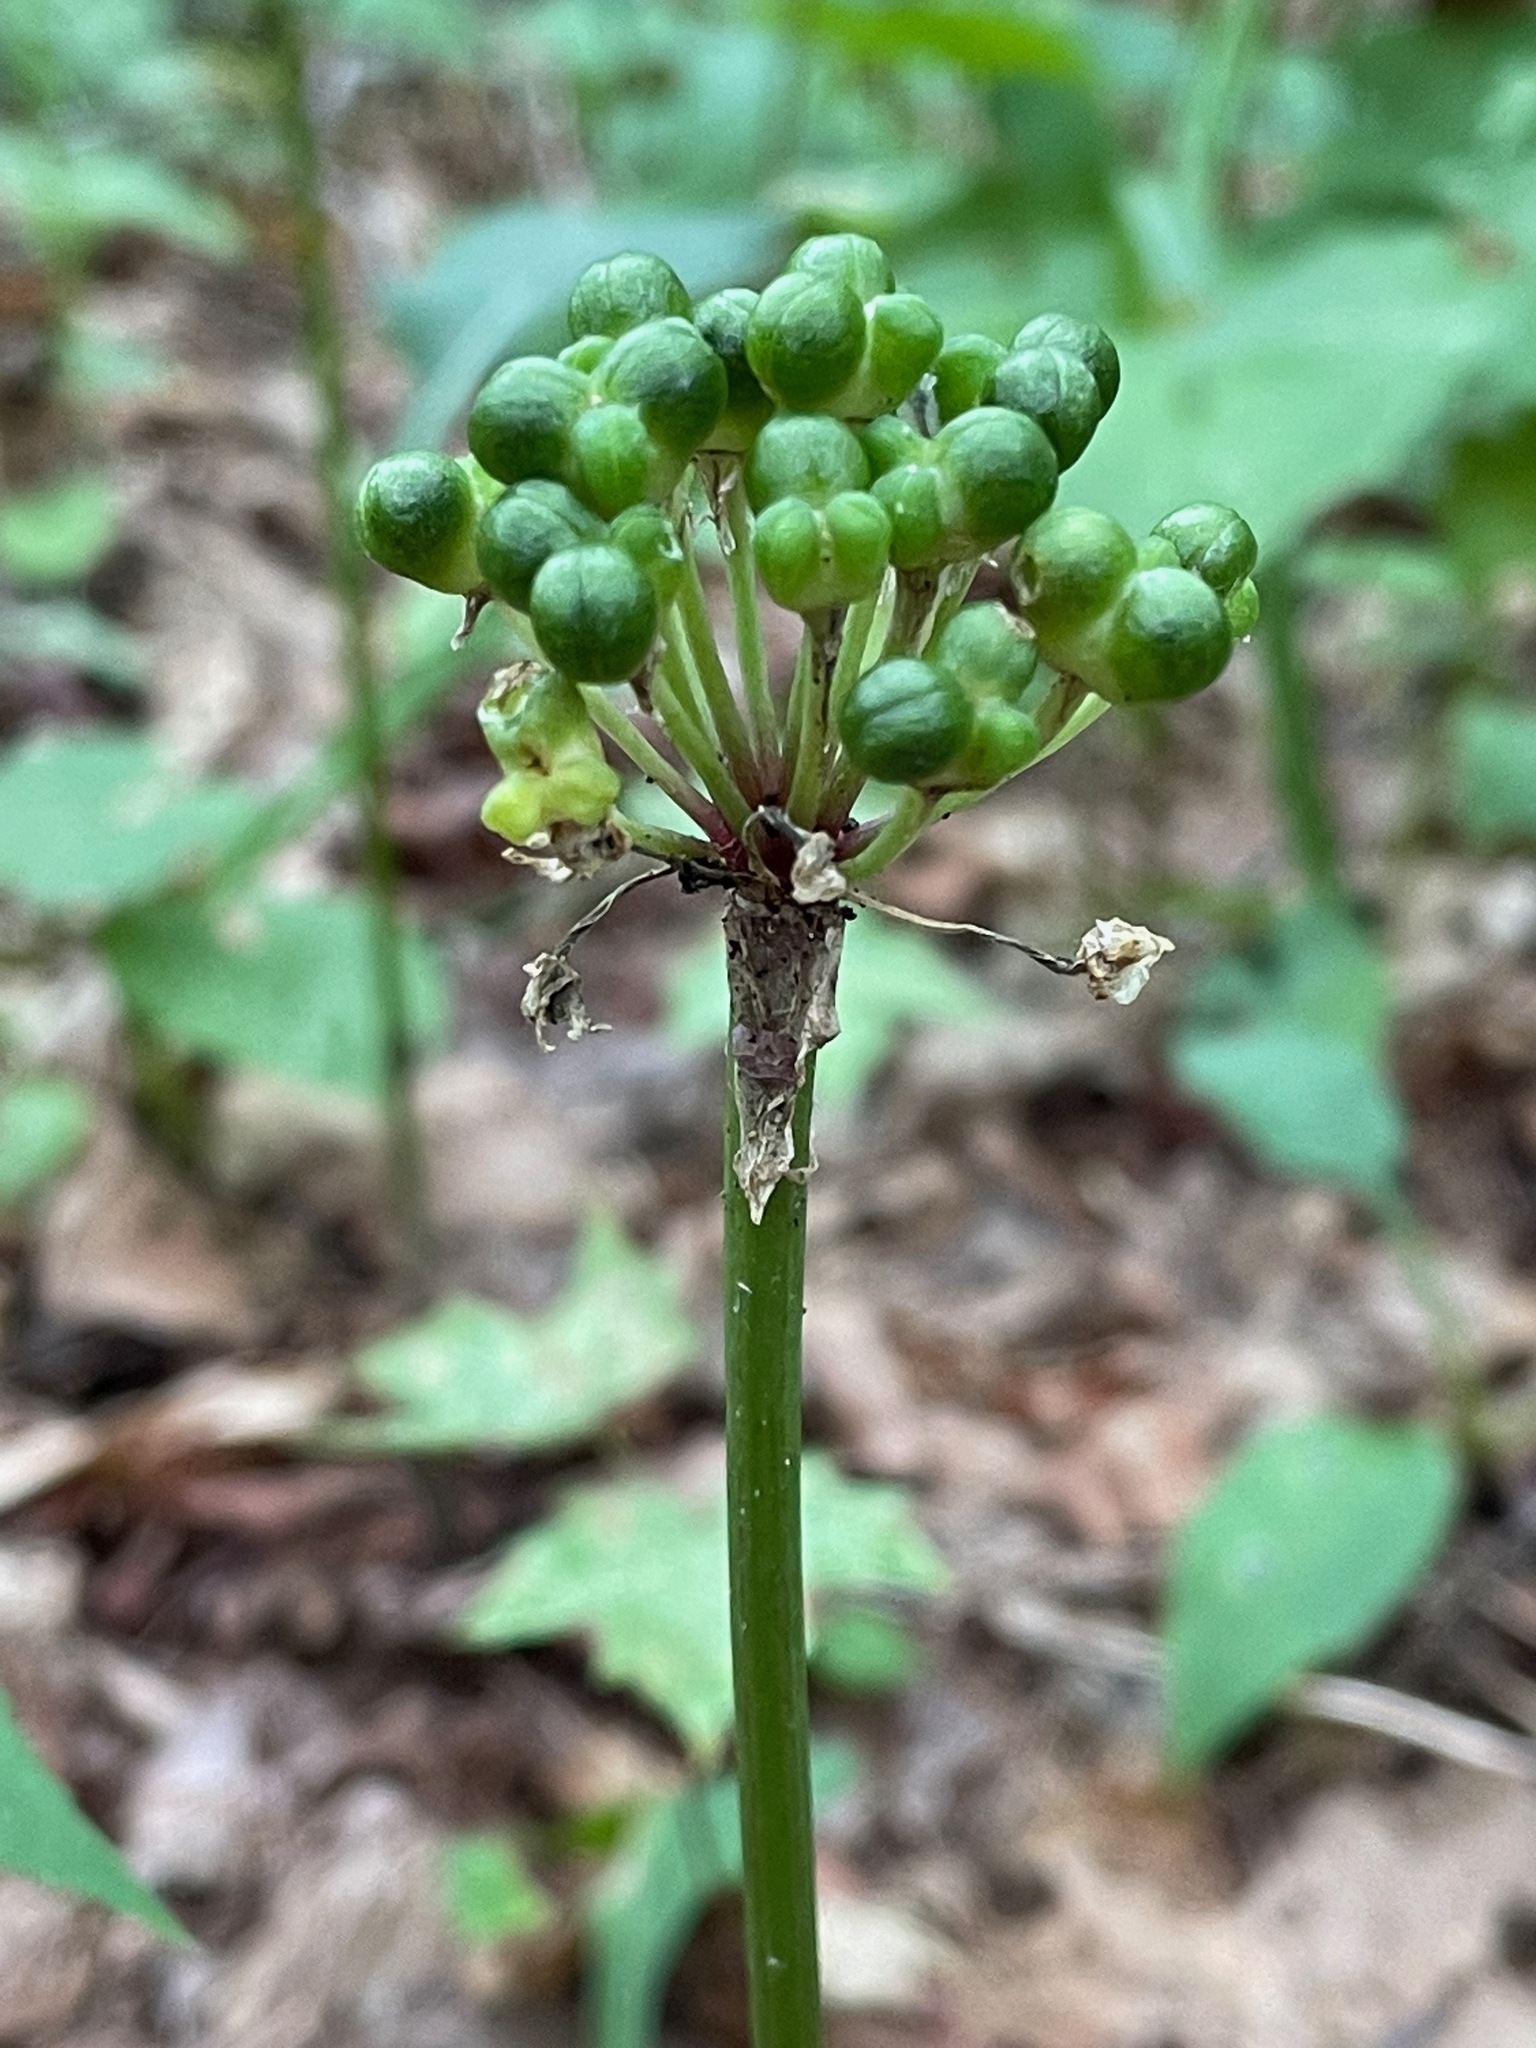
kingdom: Plantae
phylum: Tracheophyta
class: Liliopsida
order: Asparagales
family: Amaryllidaceae
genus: Allium
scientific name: Allium tricoccum
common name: Ramp
